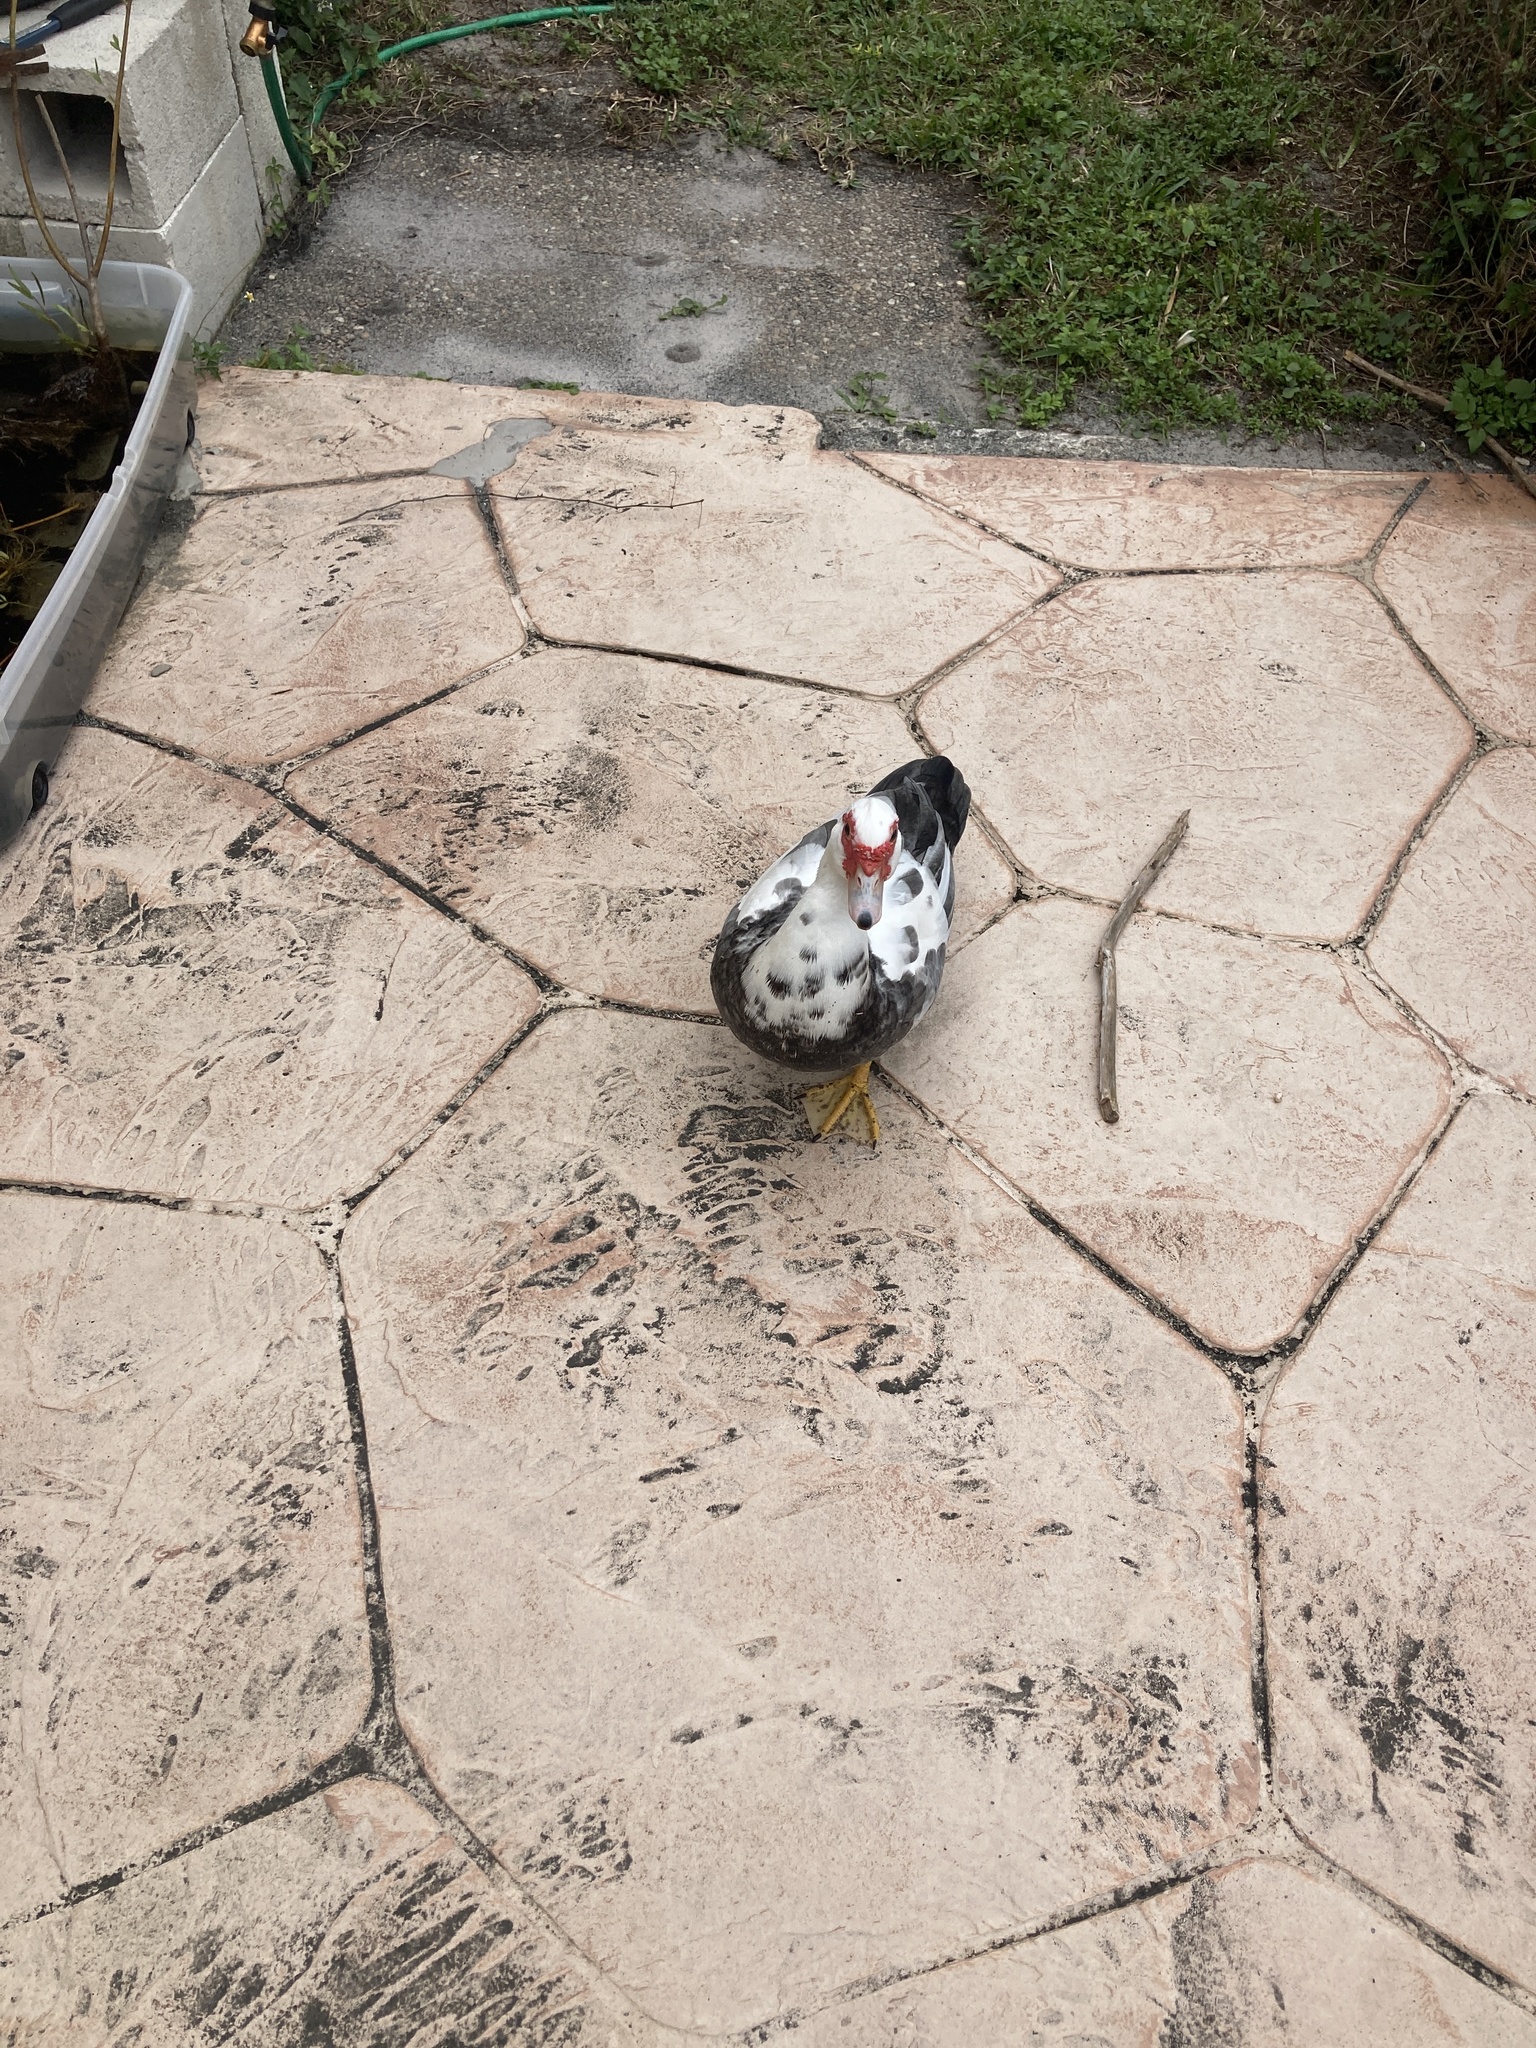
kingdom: Animalia
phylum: Chordata
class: Aves
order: Anseriformes
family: Anatidae
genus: Cairina
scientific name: Cairina moschata
